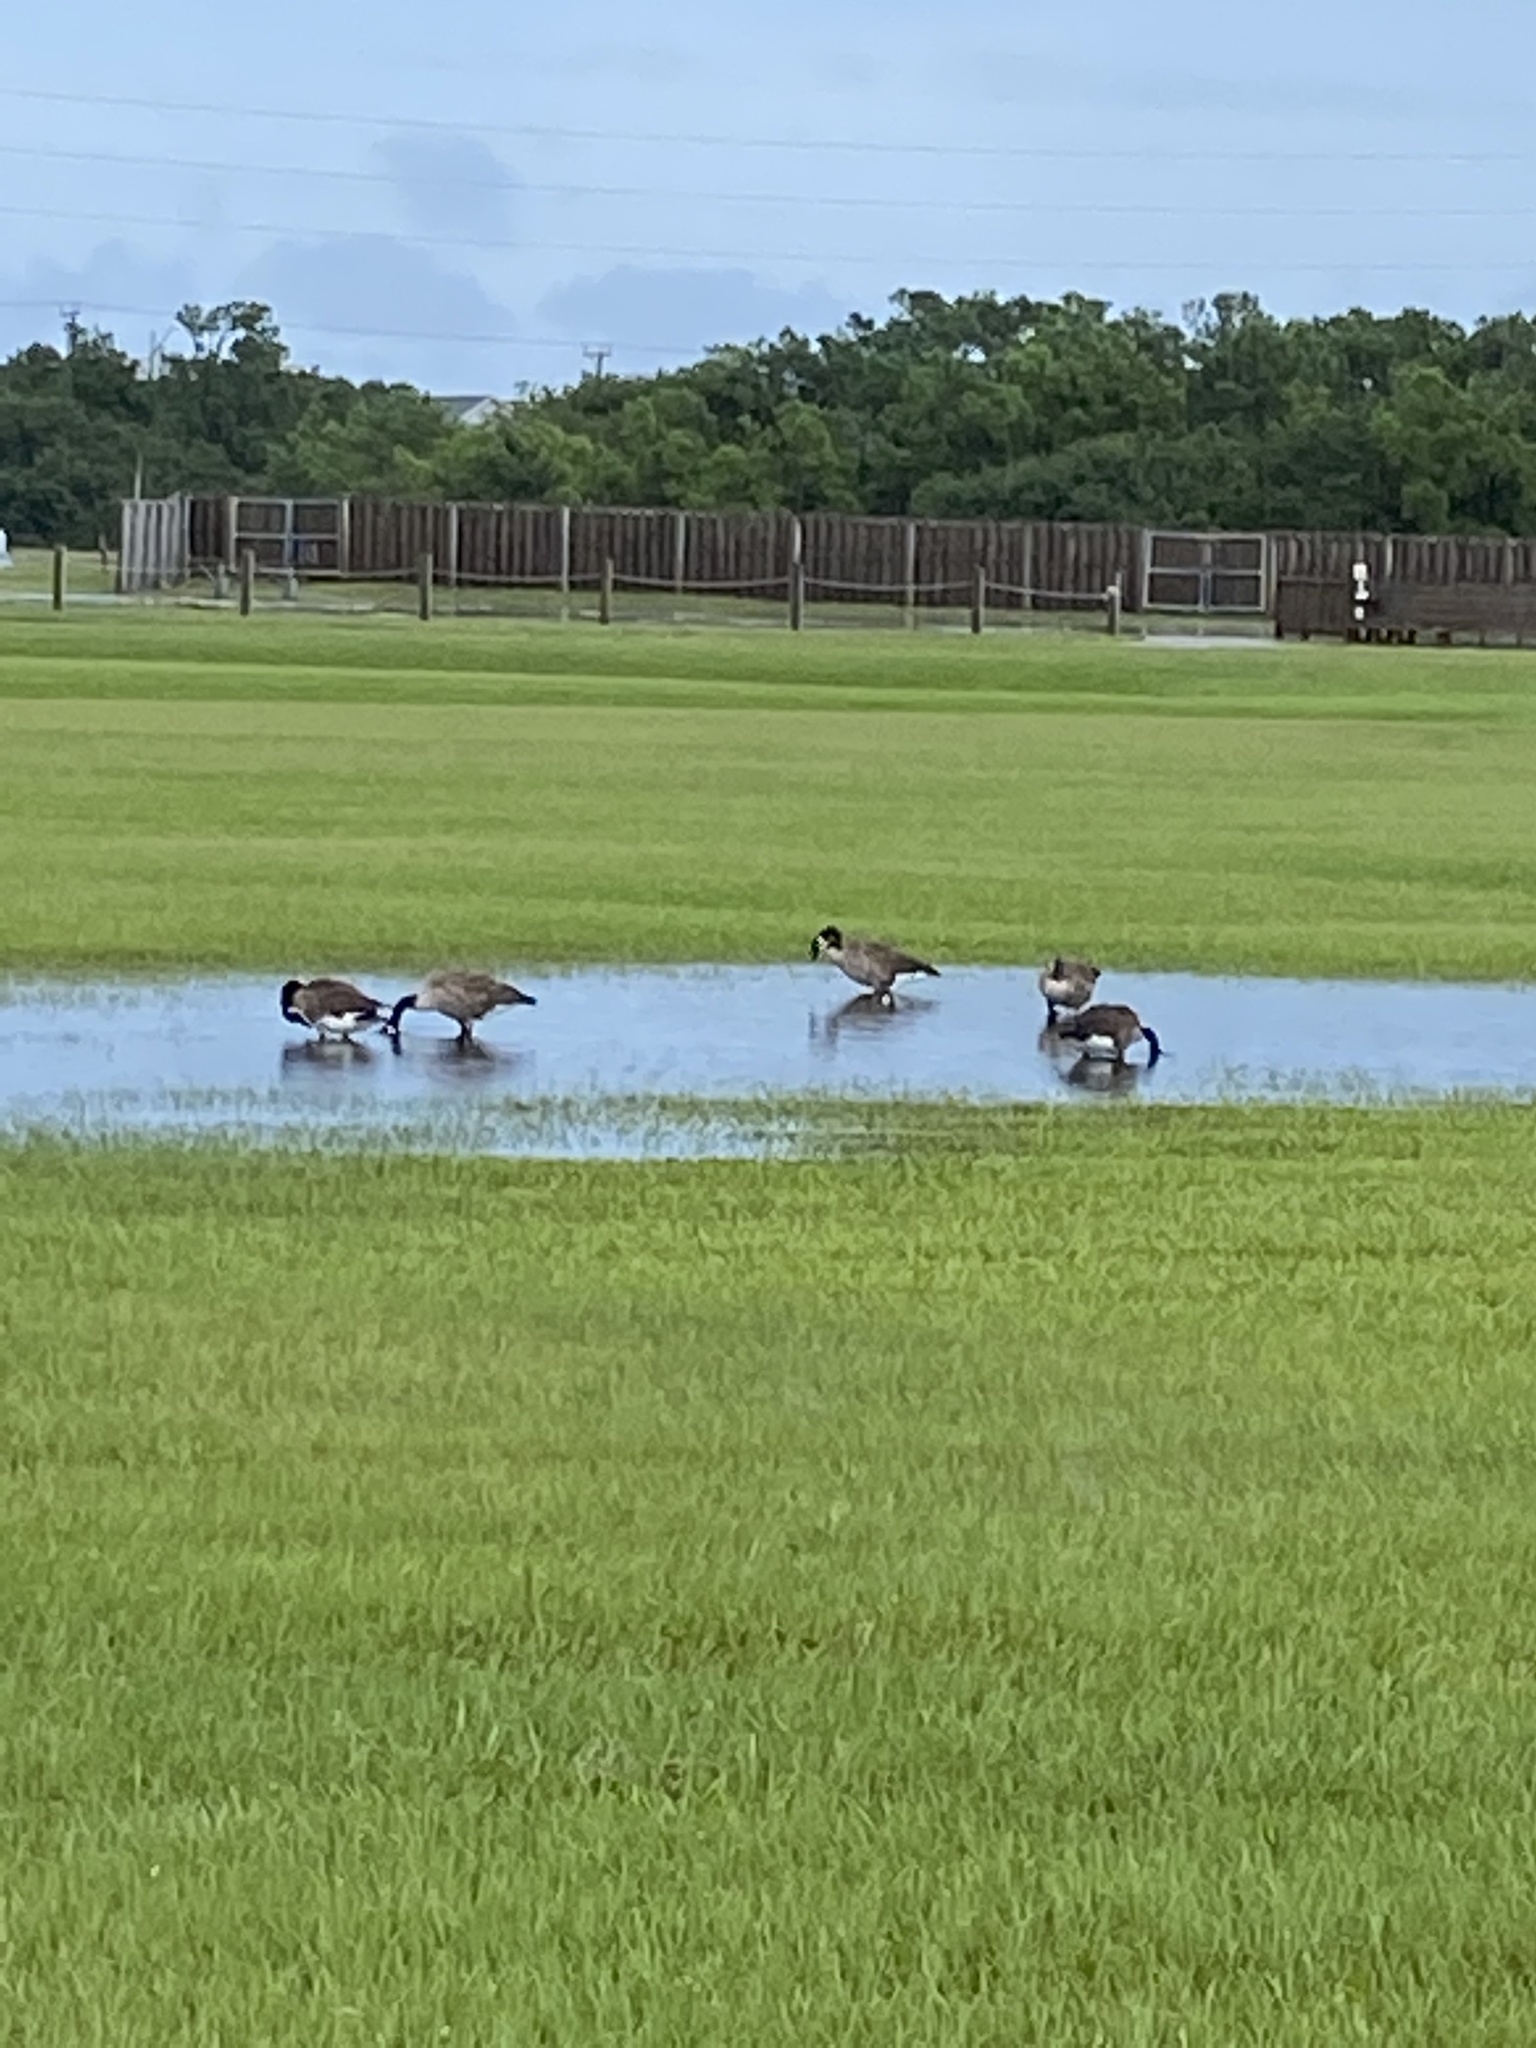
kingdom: Animalia
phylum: Chordata
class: Aves
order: Anseriformes
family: Anatidae
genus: Branta
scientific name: Branta canadensis
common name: Canada goose
